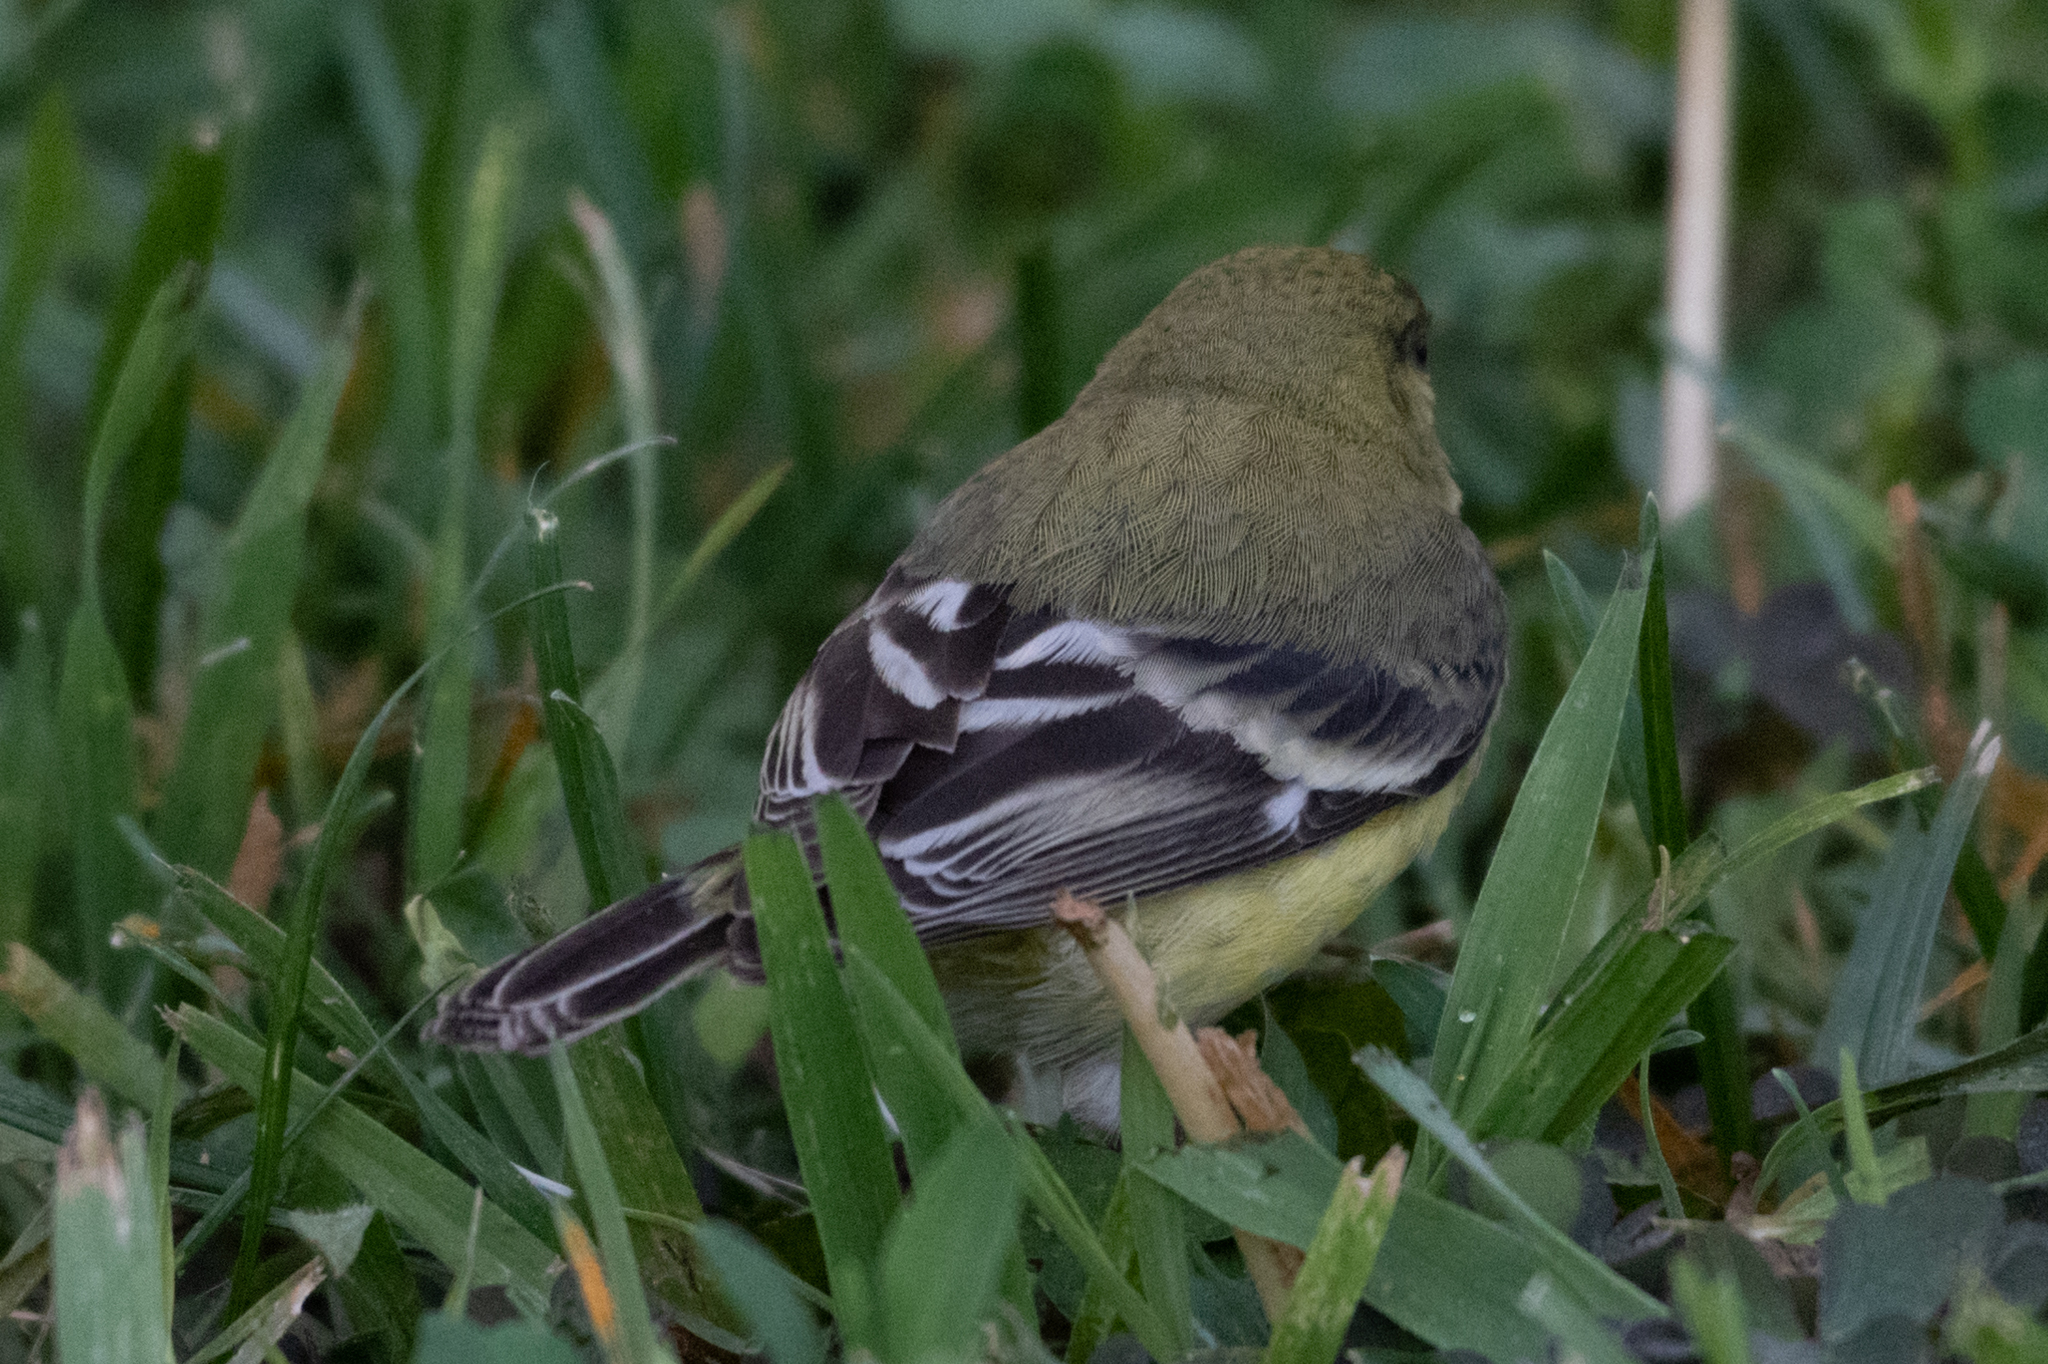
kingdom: Animalia
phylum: Chordata
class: Aves
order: Passeriformes
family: Fringillidae
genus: Spinus
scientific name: Spinus psaltria
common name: Lesser goldfinch
